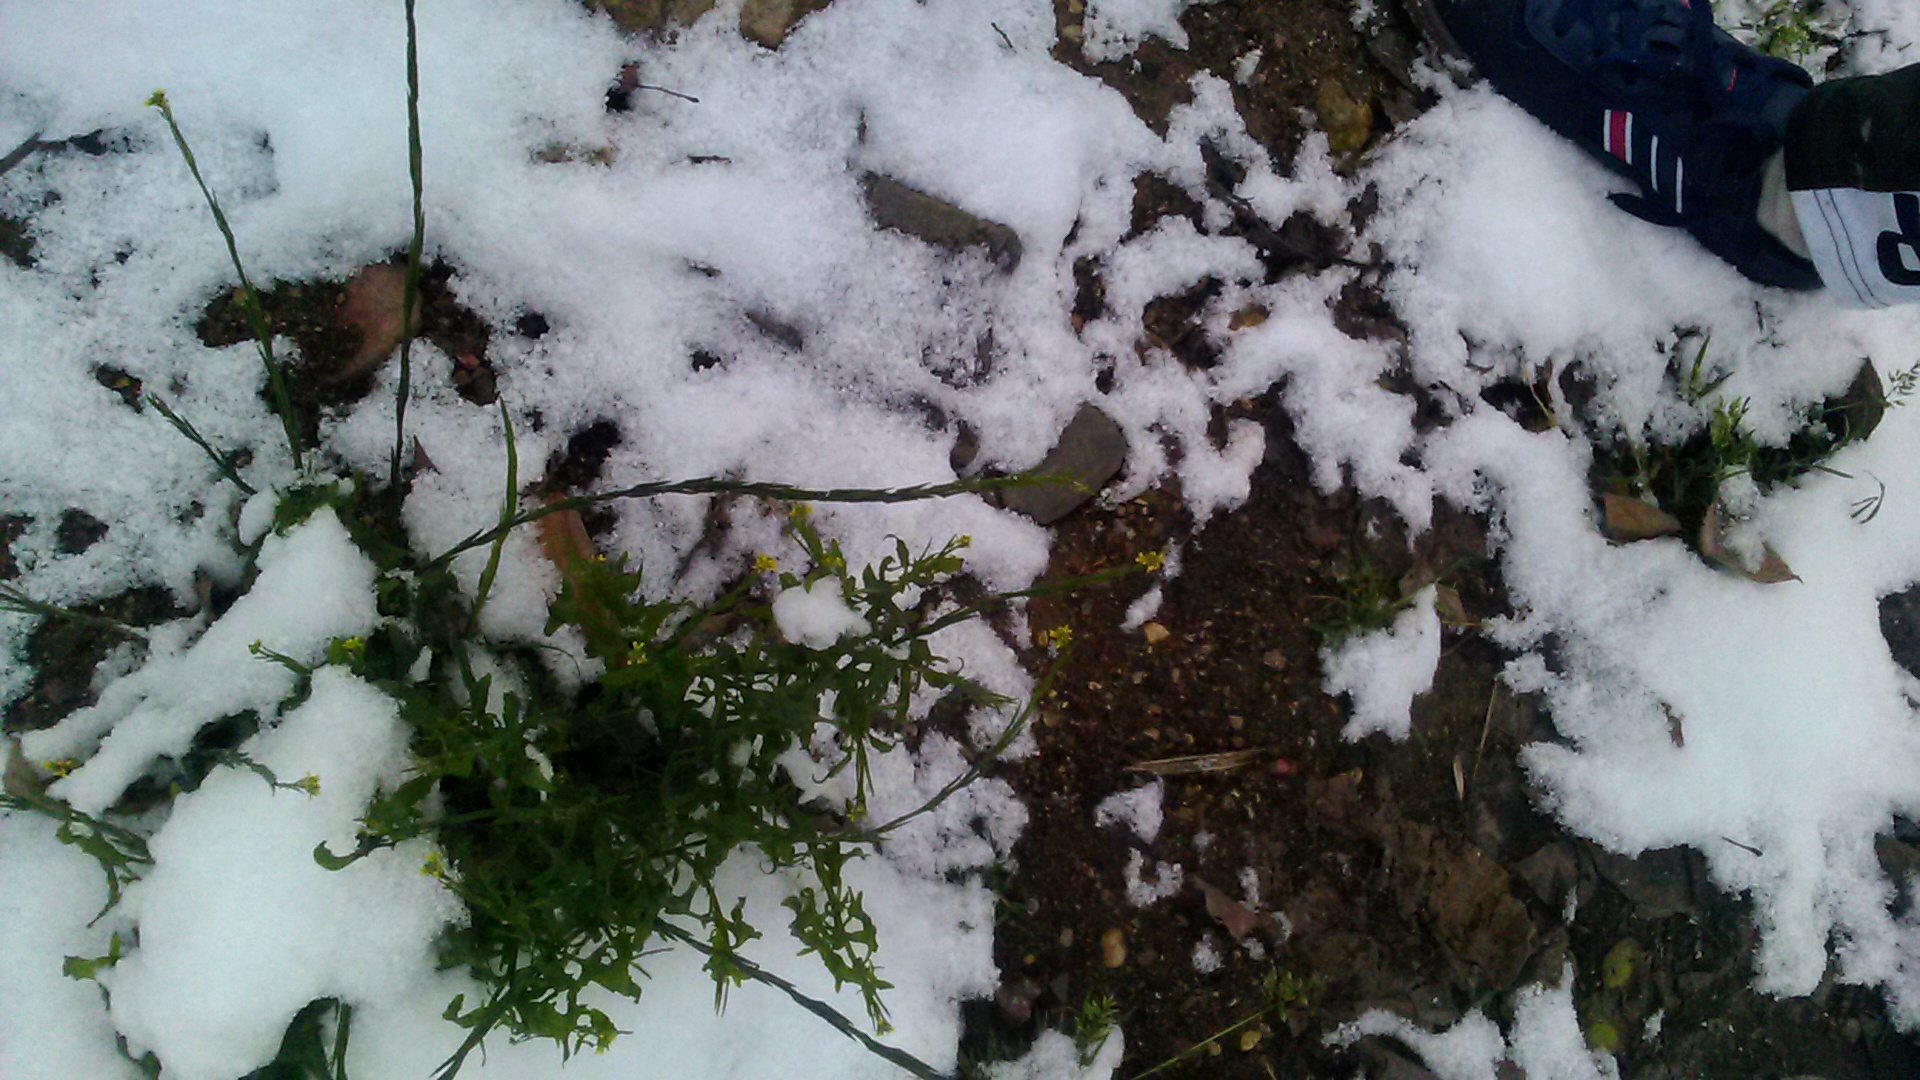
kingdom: Plantae
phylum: Tracheophyta
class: Magnoliopsida
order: Brassicales
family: Brassicaceae
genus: Sisymbrium
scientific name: Sisymbrium officinale
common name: Hedge mustard
